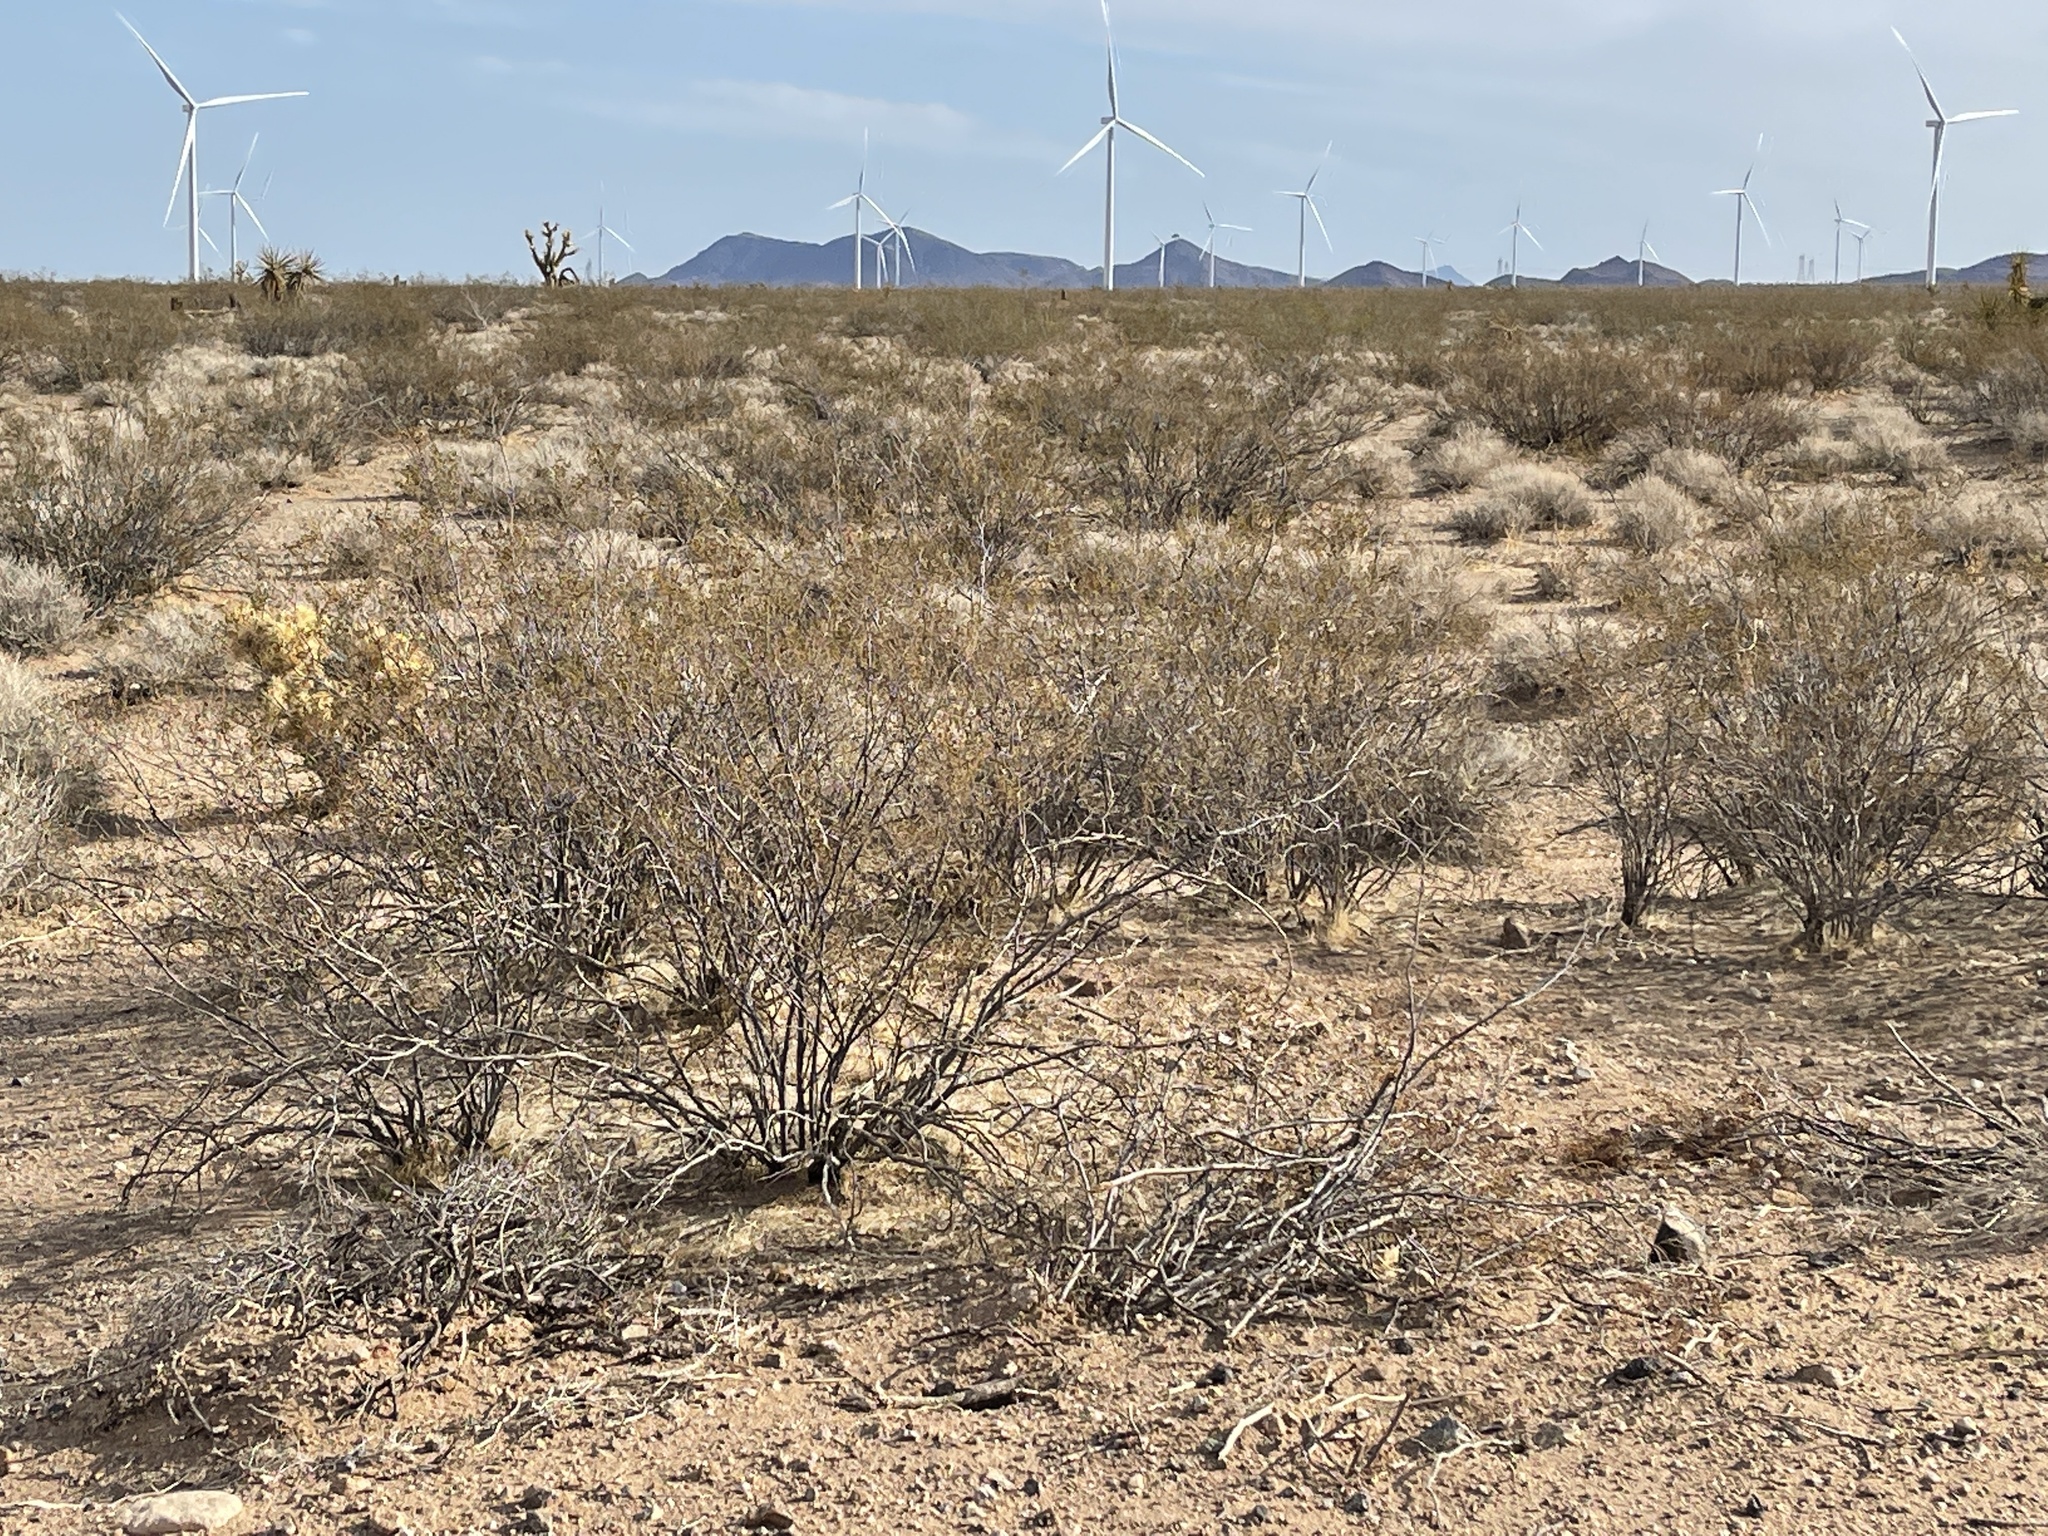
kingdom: Plantae
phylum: Tracheophyta
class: Magnoliopsida
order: Zygophyllales
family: Zygophyllaceae
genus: Larrea
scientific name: Larrea tridentata
